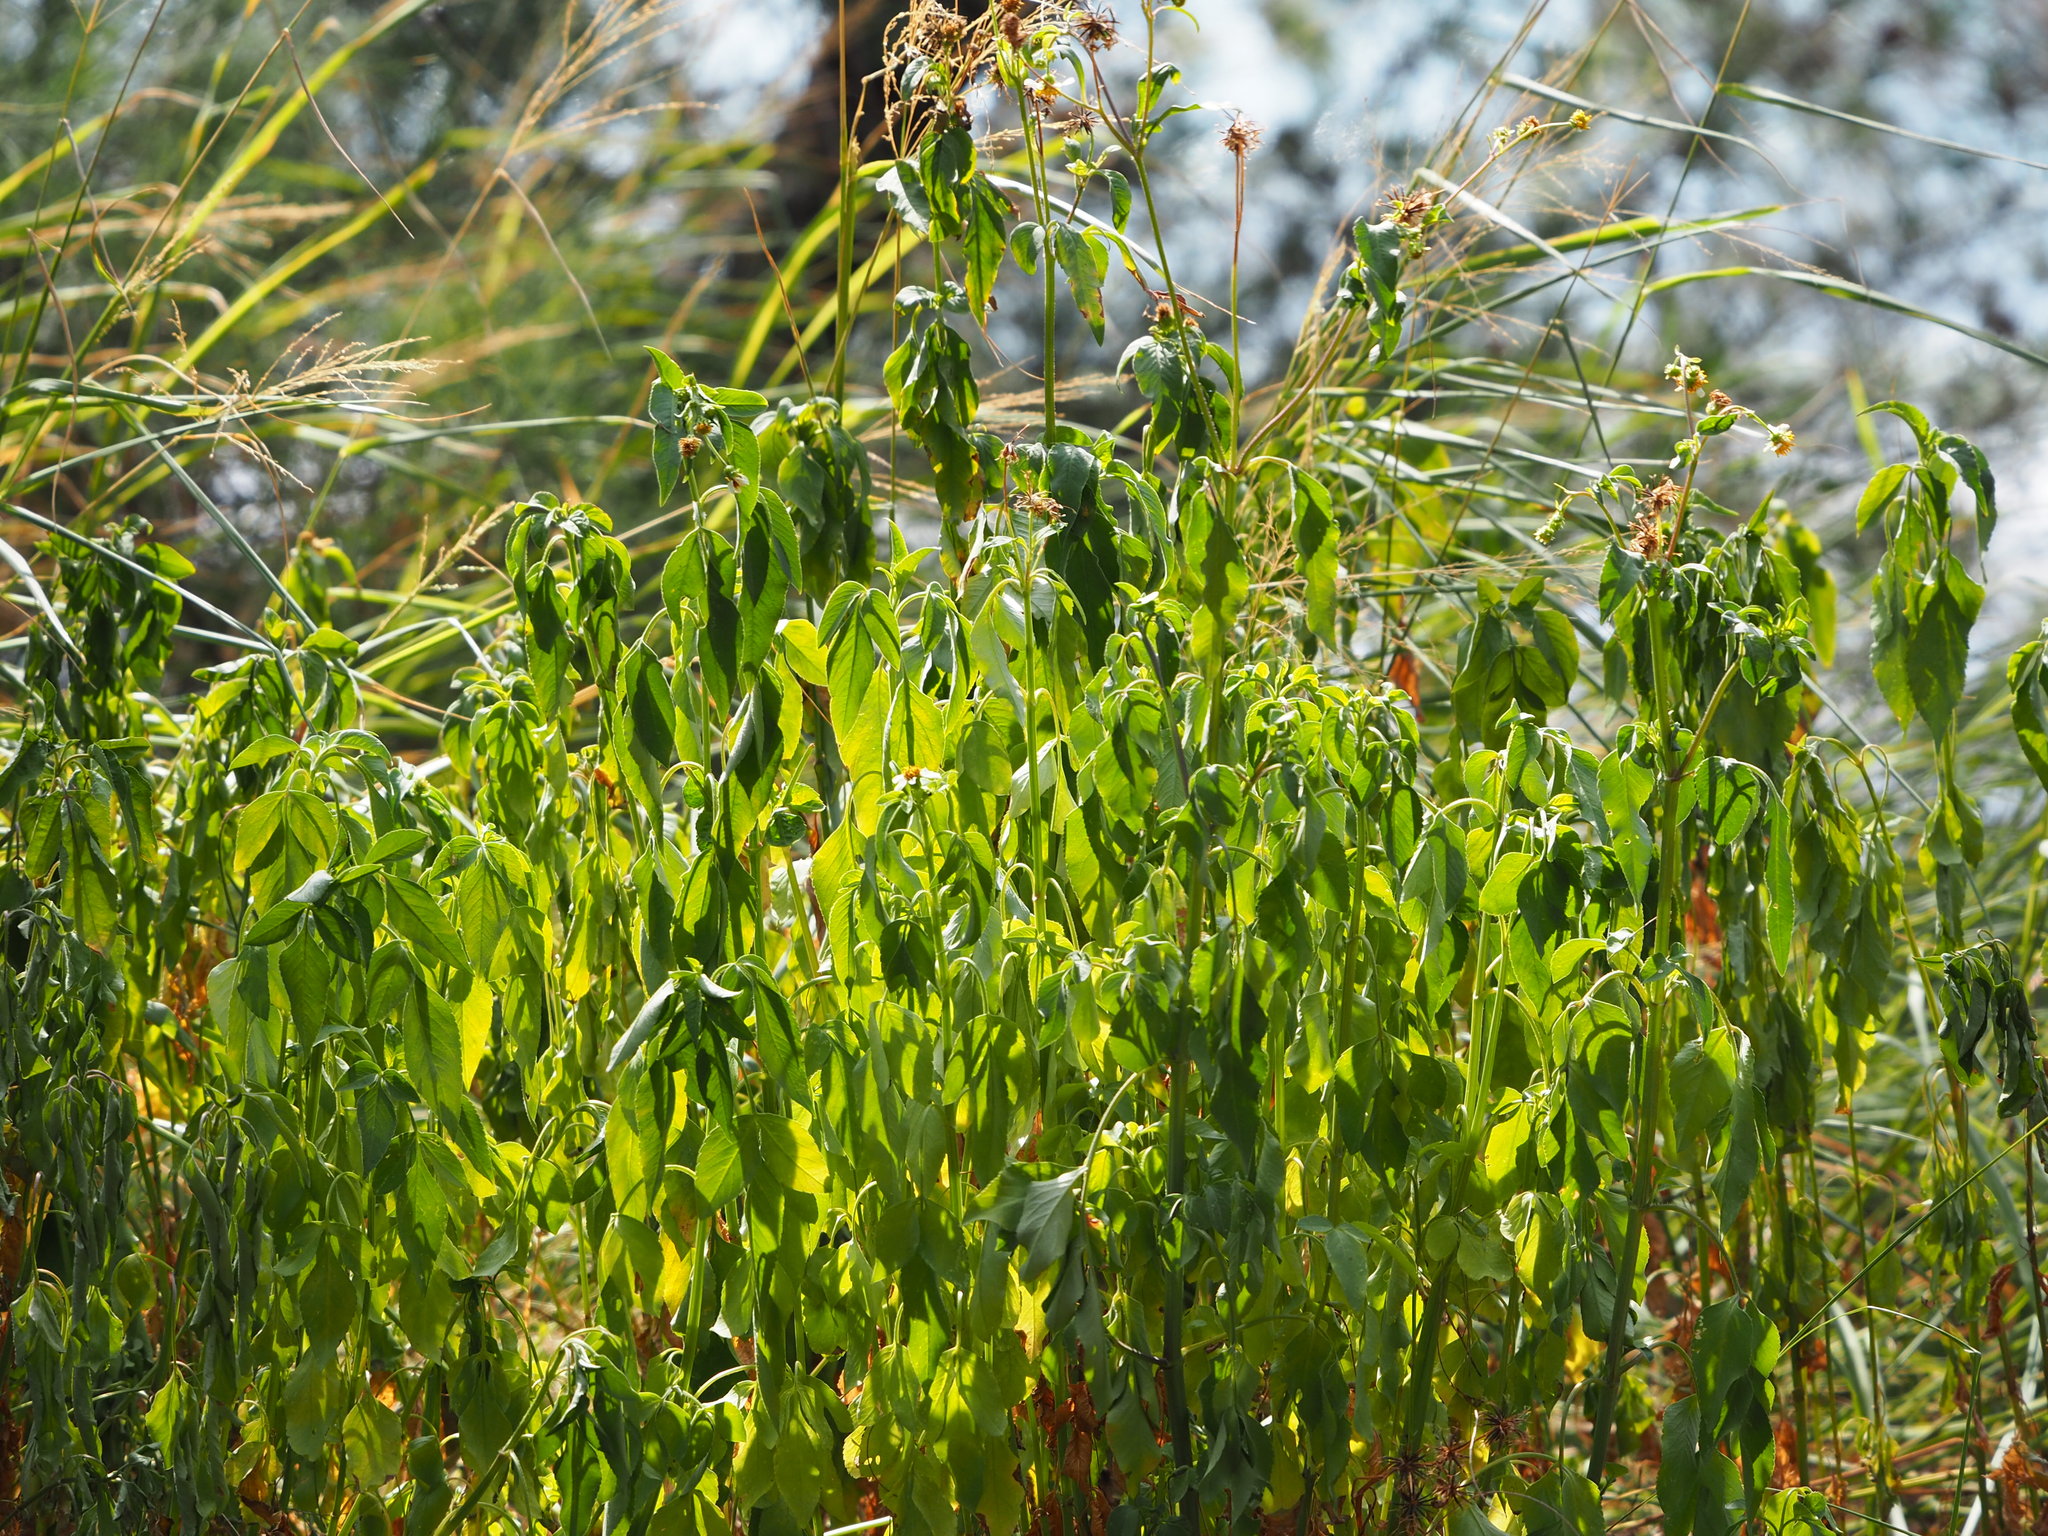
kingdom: Plantae
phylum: Tracheophyta
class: Magnoliopsida
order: Asterales
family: Asteraceae
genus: Bidens
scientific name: Bidens alba
